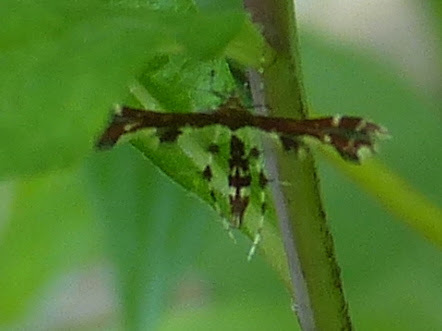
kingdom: Animalia
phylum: Arthropoda
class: Insecta
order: Lepidoptera
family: Pterophoridae
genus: Geina
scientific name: Geina
